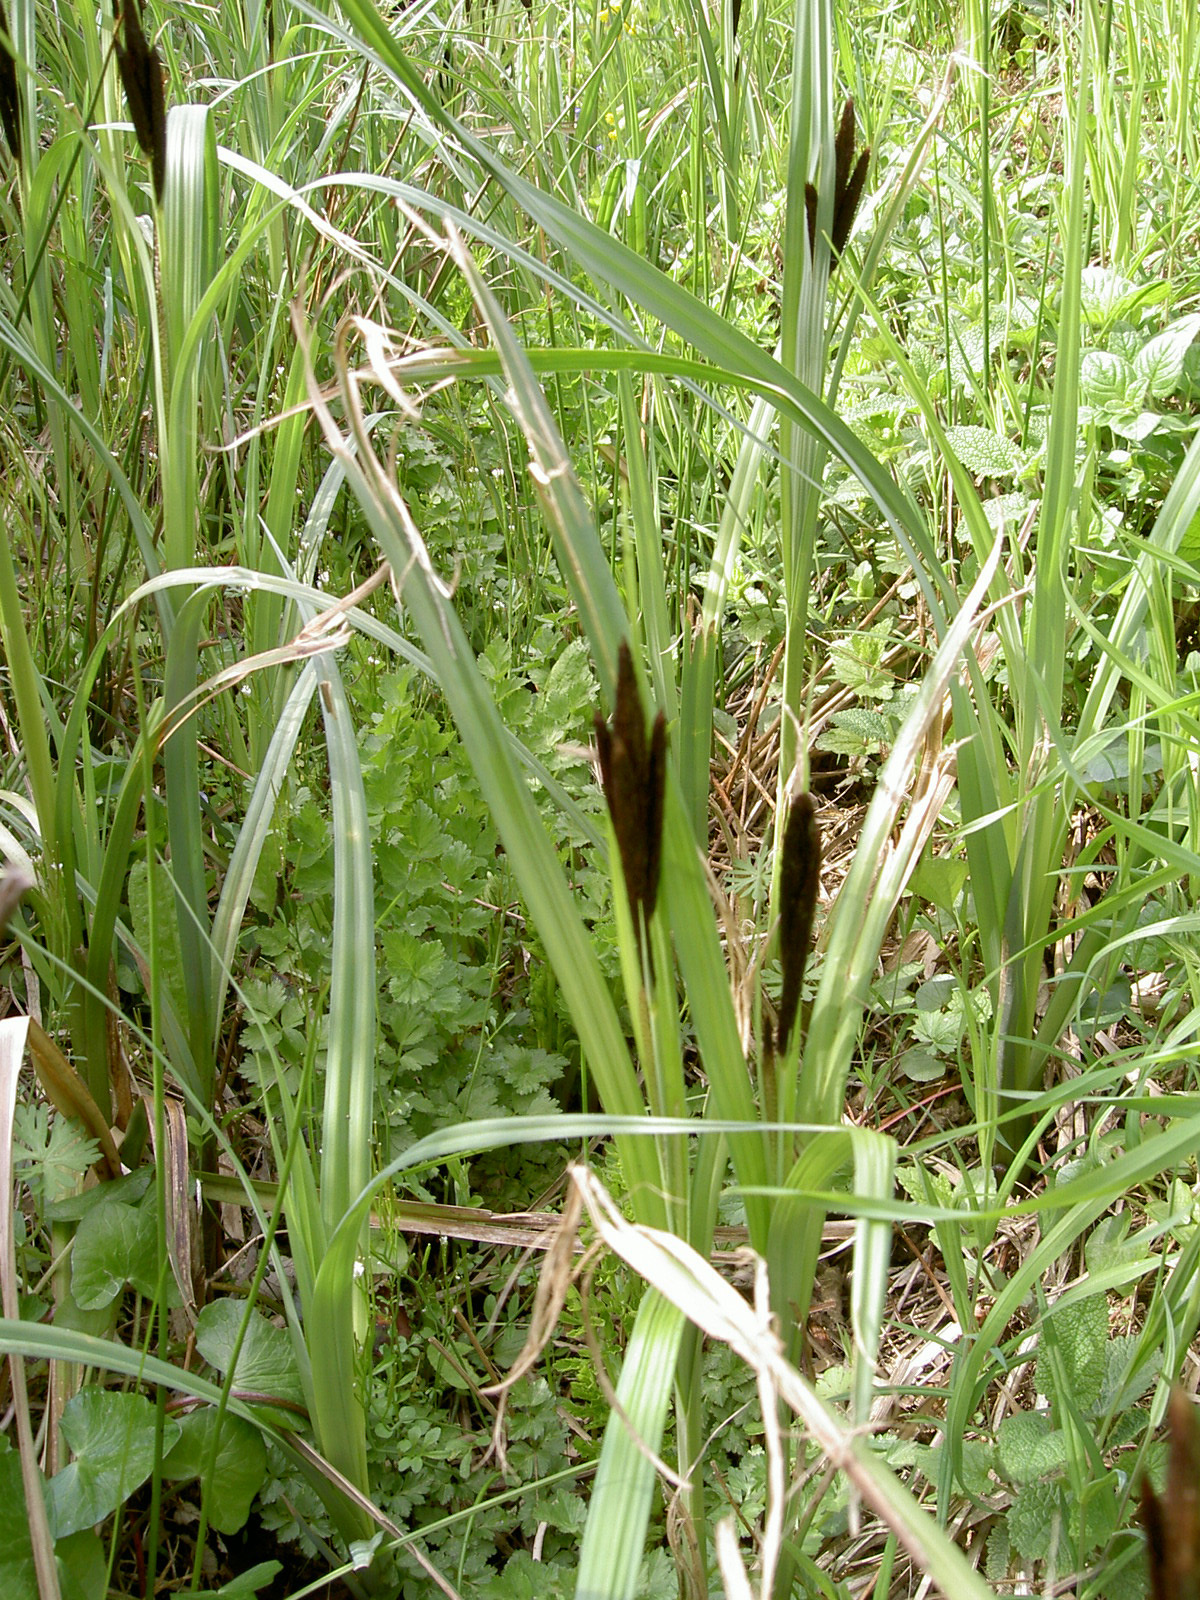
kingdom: Plantae
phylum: Tracheophyta
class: Liliopsida
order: Poales
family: Cyperaceae
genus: Carex
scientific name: Carex riparia
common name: Greater pond-sedge
